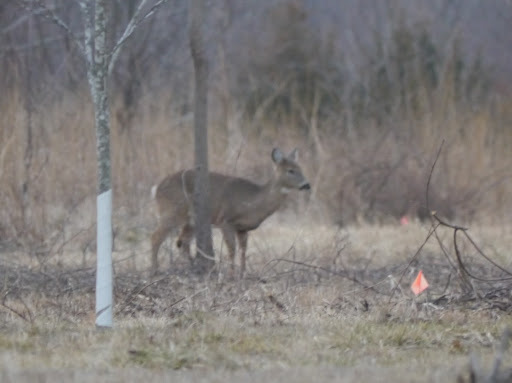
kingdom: Animalia
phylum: Chordata
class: Mammalia
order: Artiodactyla
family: Cervidae
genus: Odocoileus
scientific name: Odocoileus virginianus
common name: White-tailed deer
